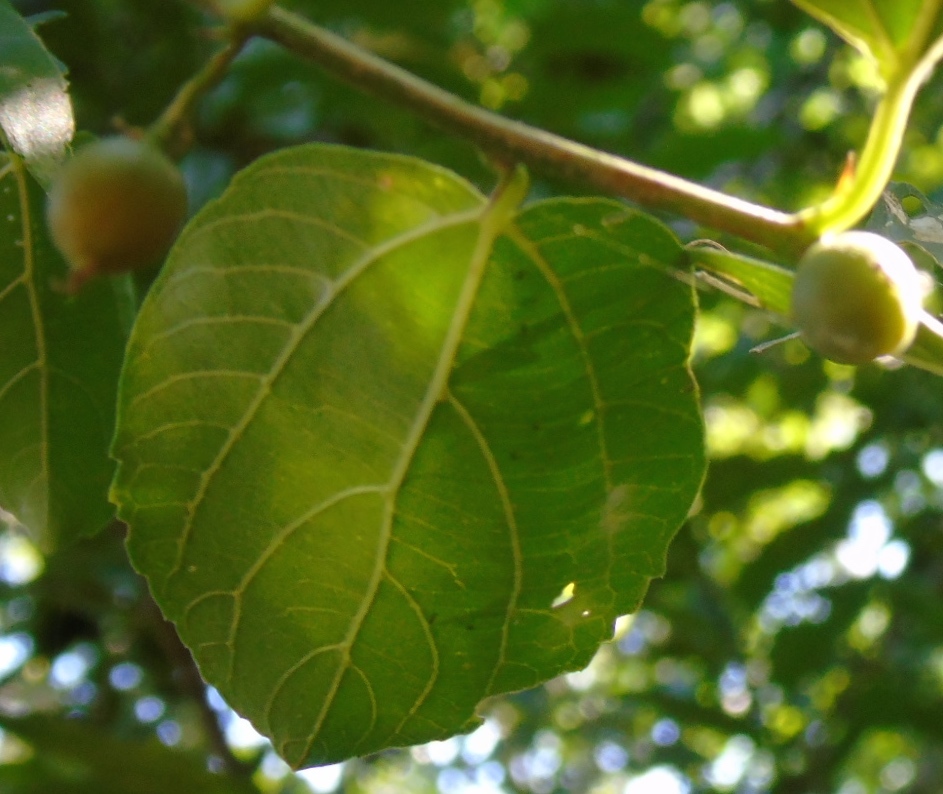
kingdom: Plantae
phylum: Tracheophyta
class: Magnoliopsida
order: Rosales
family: Cannabaceae
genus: Celtis
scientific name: Celtis iguanaea
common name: Iguana hackberry
